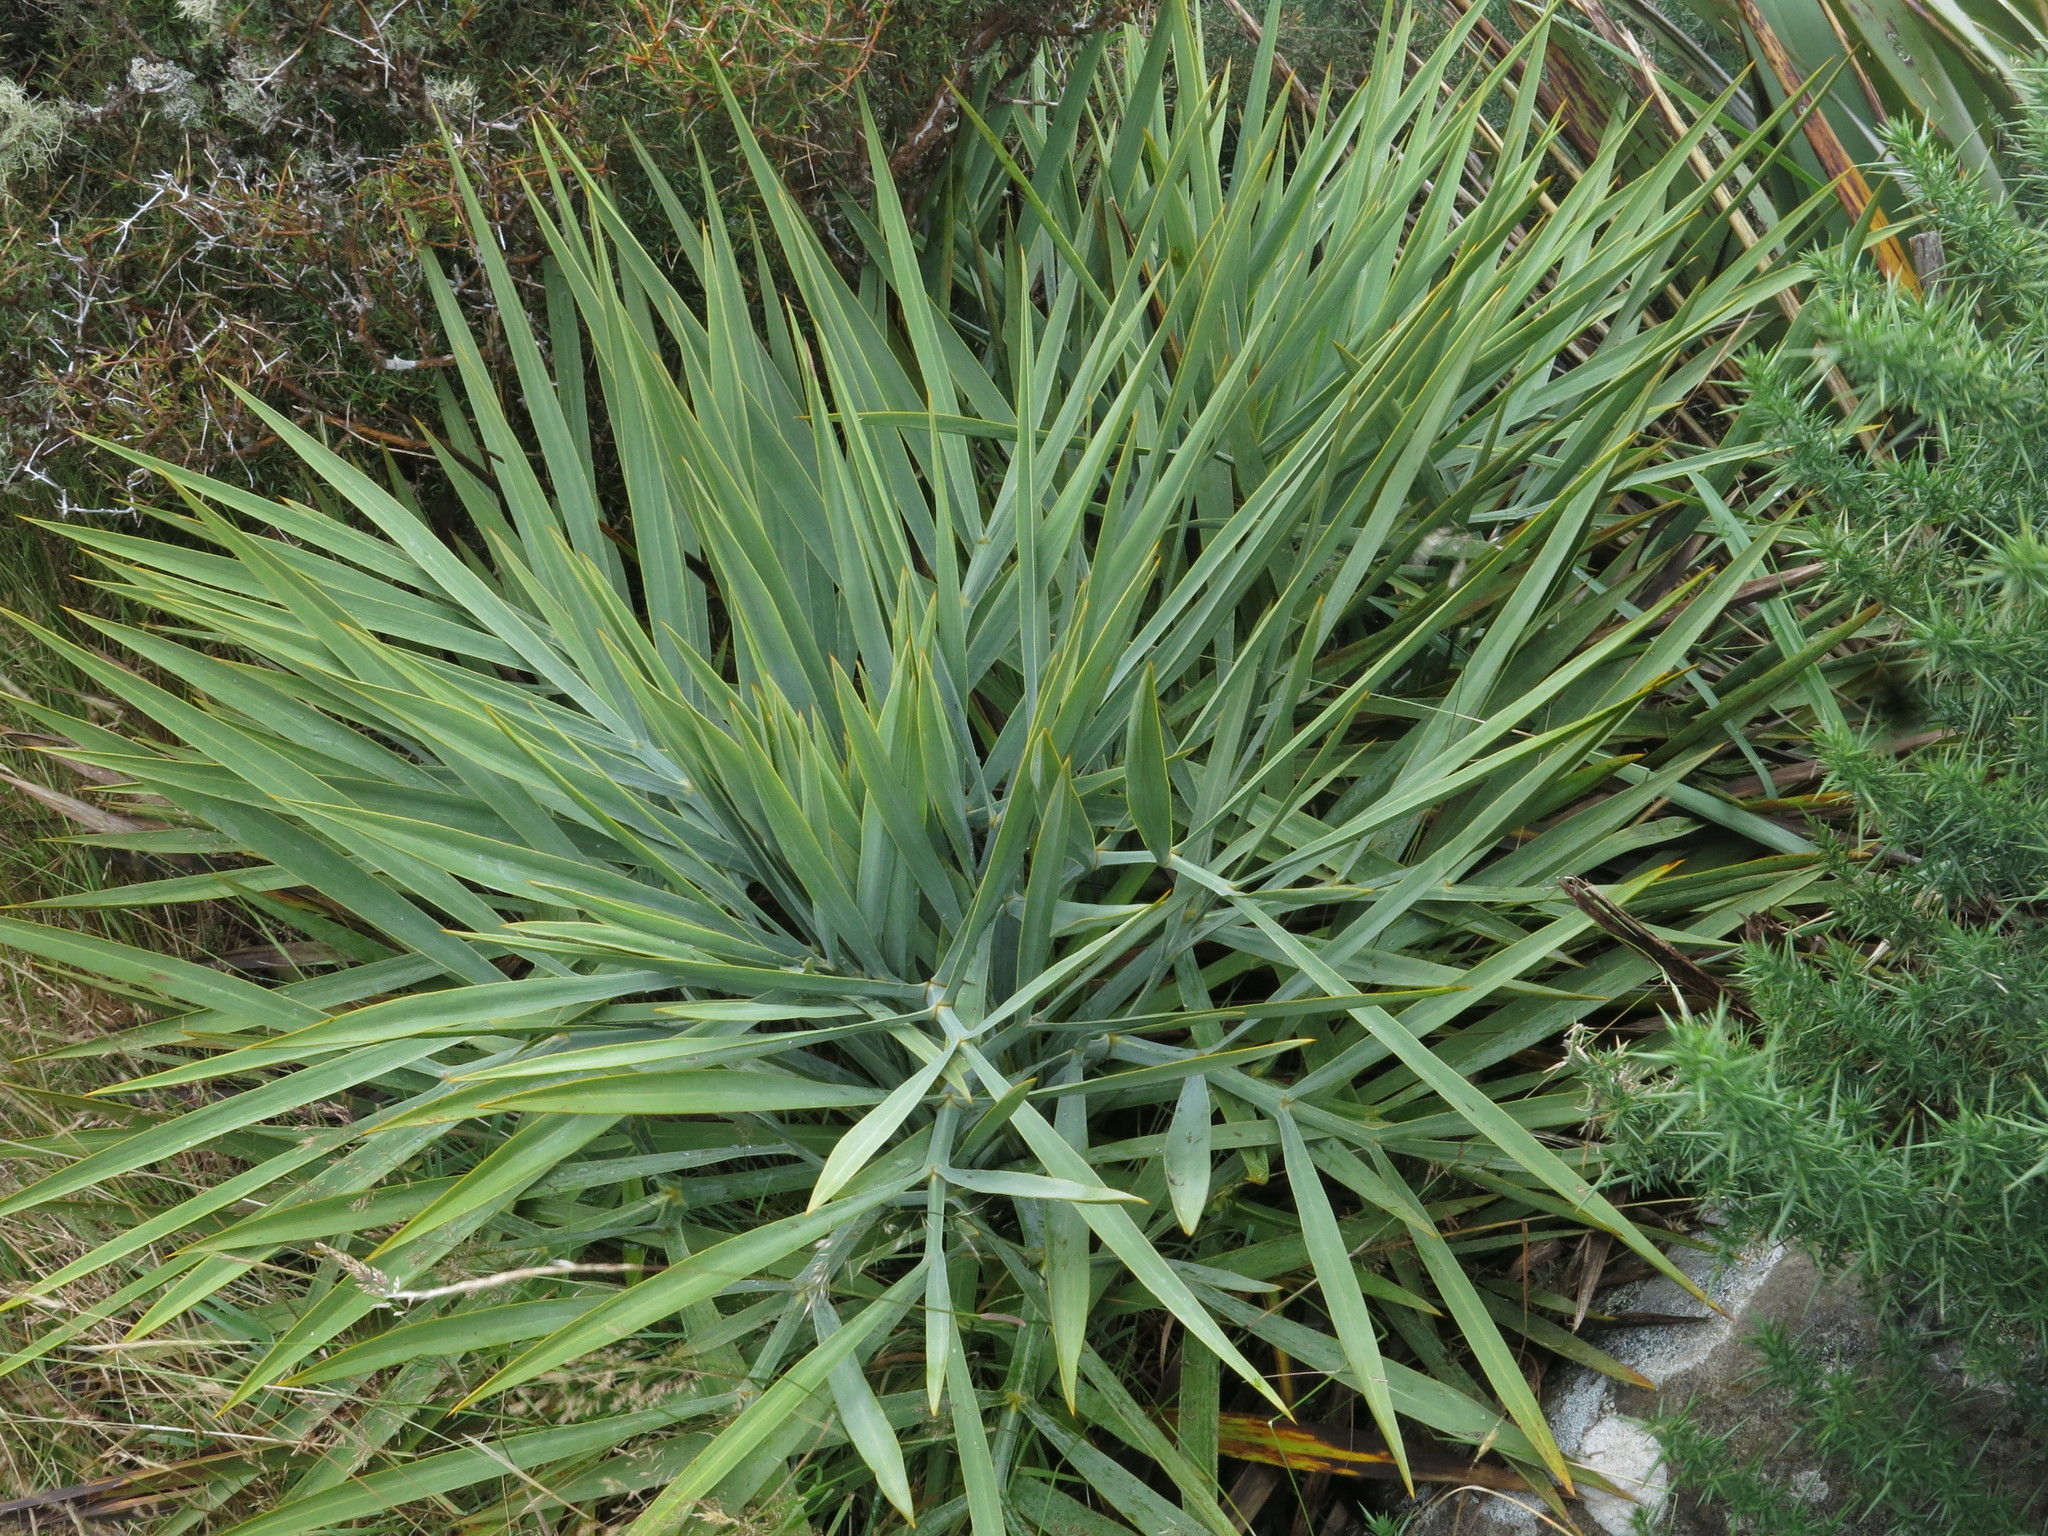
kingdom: Plantae
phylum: Tracheophyta
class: Magnoliopsida
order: Apiales
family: Apiaceae
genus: Aciphylla
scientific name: Aciphylla scott-thomsonii
